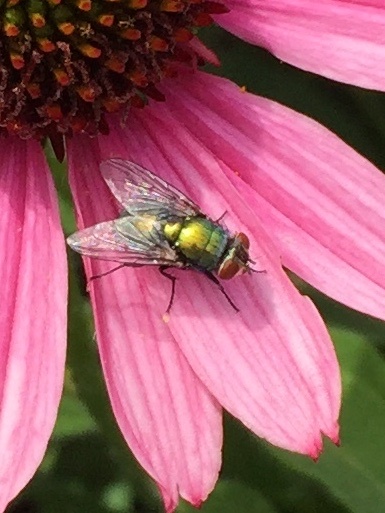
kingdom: Animalia
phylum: Arthropoda
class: Insecta
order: Diptera
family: Calliphoridae
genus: Lucilia
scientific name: Lucilia sericata
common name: Blow fly
